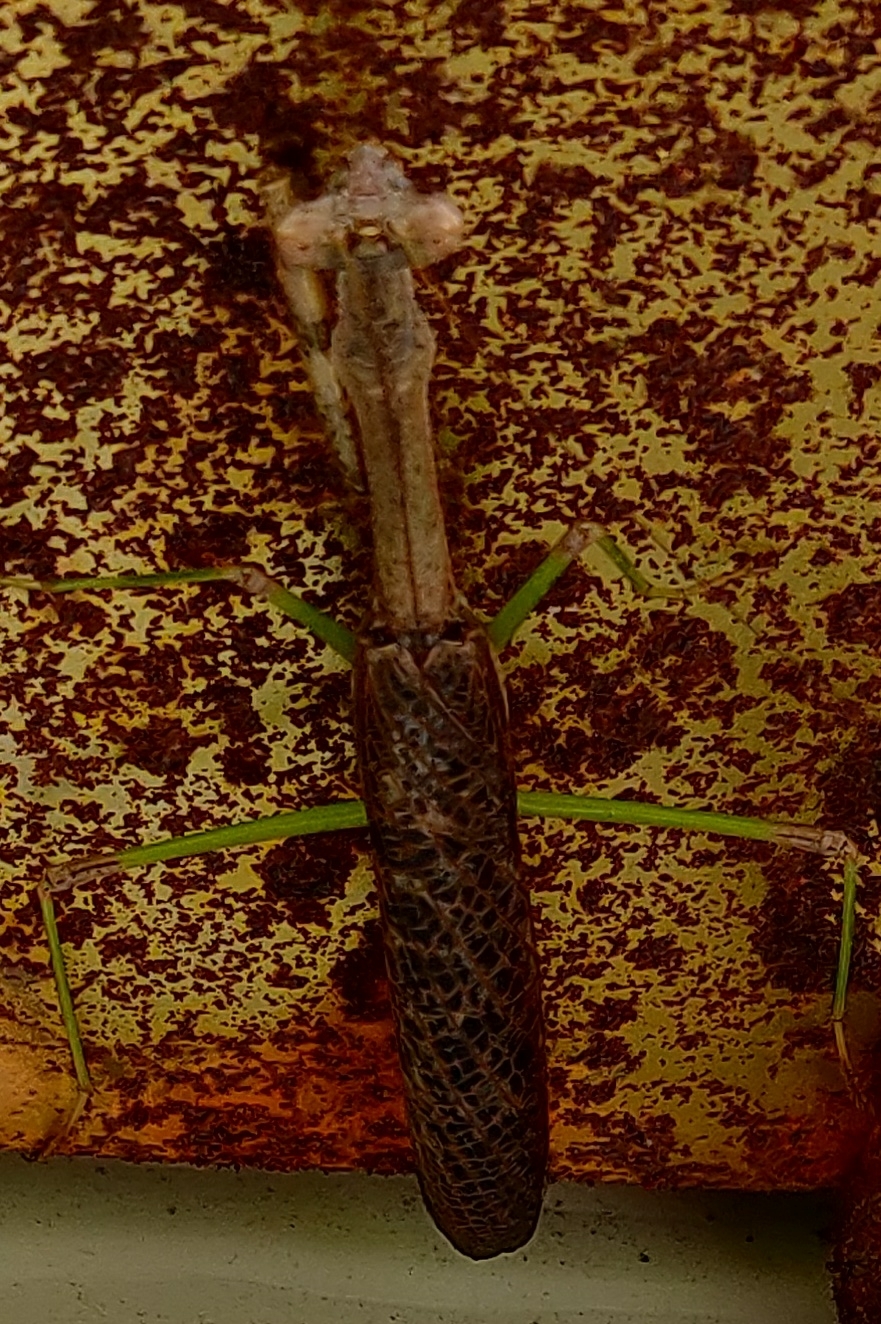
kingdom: Animalia
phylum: Arthropoda
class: Insecta
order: Mantodea
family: Mantidae
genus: Stagmomantis
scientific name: Stagmomantis carolina
